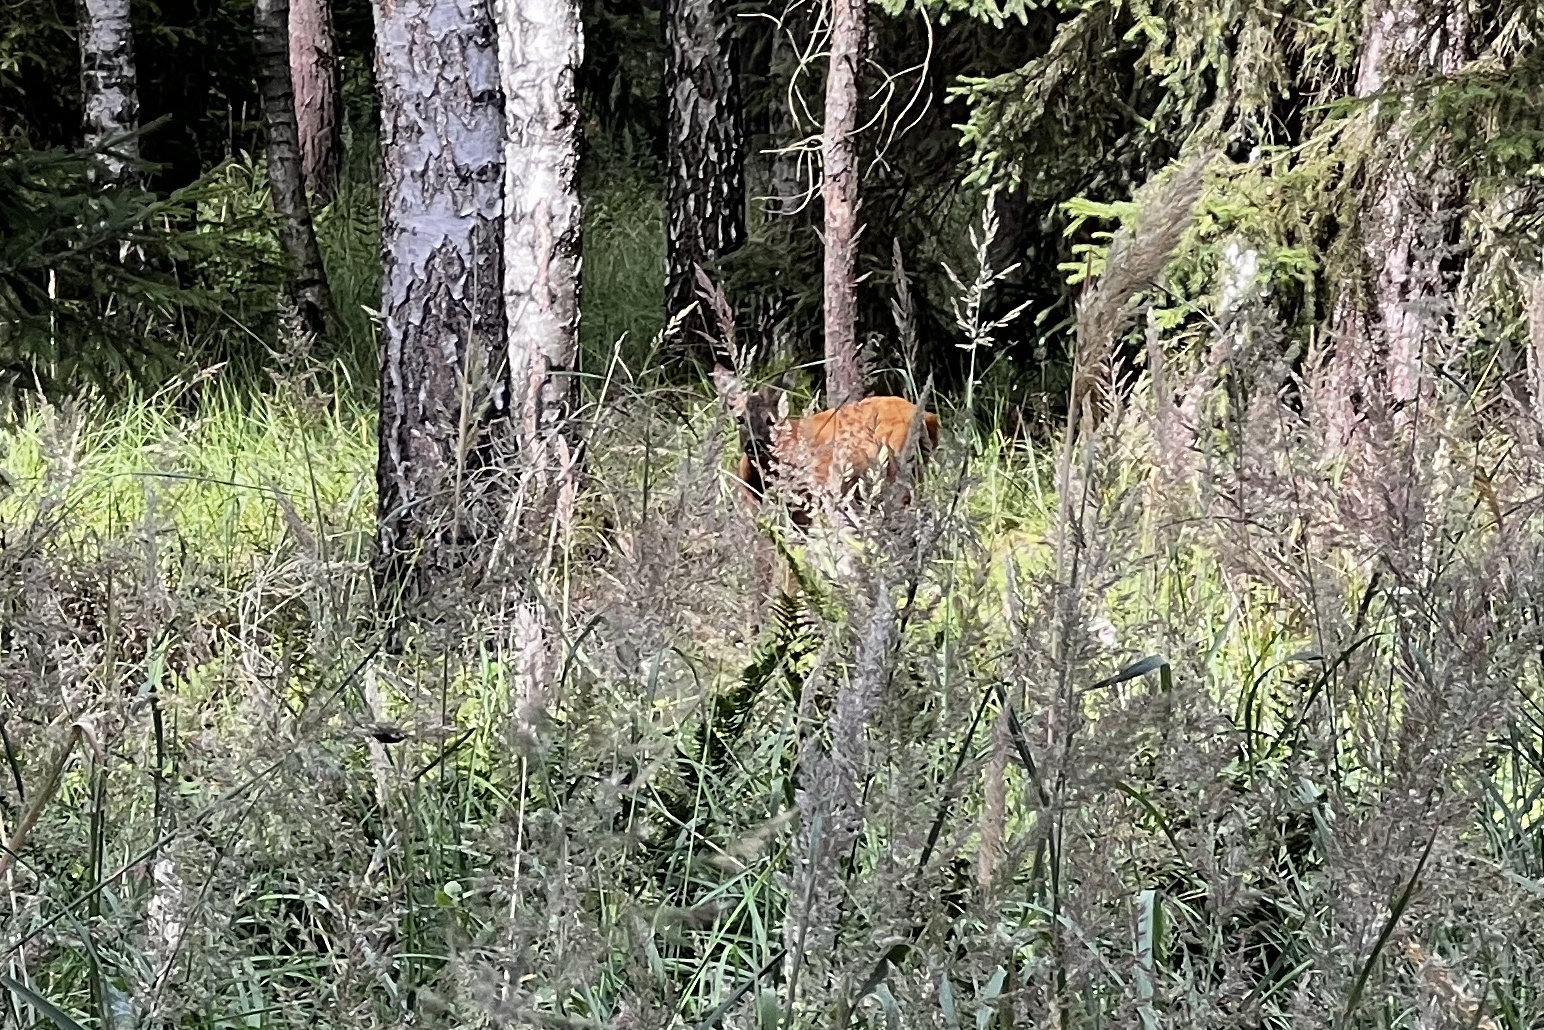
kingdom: Animalia
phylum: Chordata
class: Mammalia
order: Artiodactyla
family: Cervidae
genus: Capreolus
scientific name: Capreolus capreolus
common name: Western roe deer
